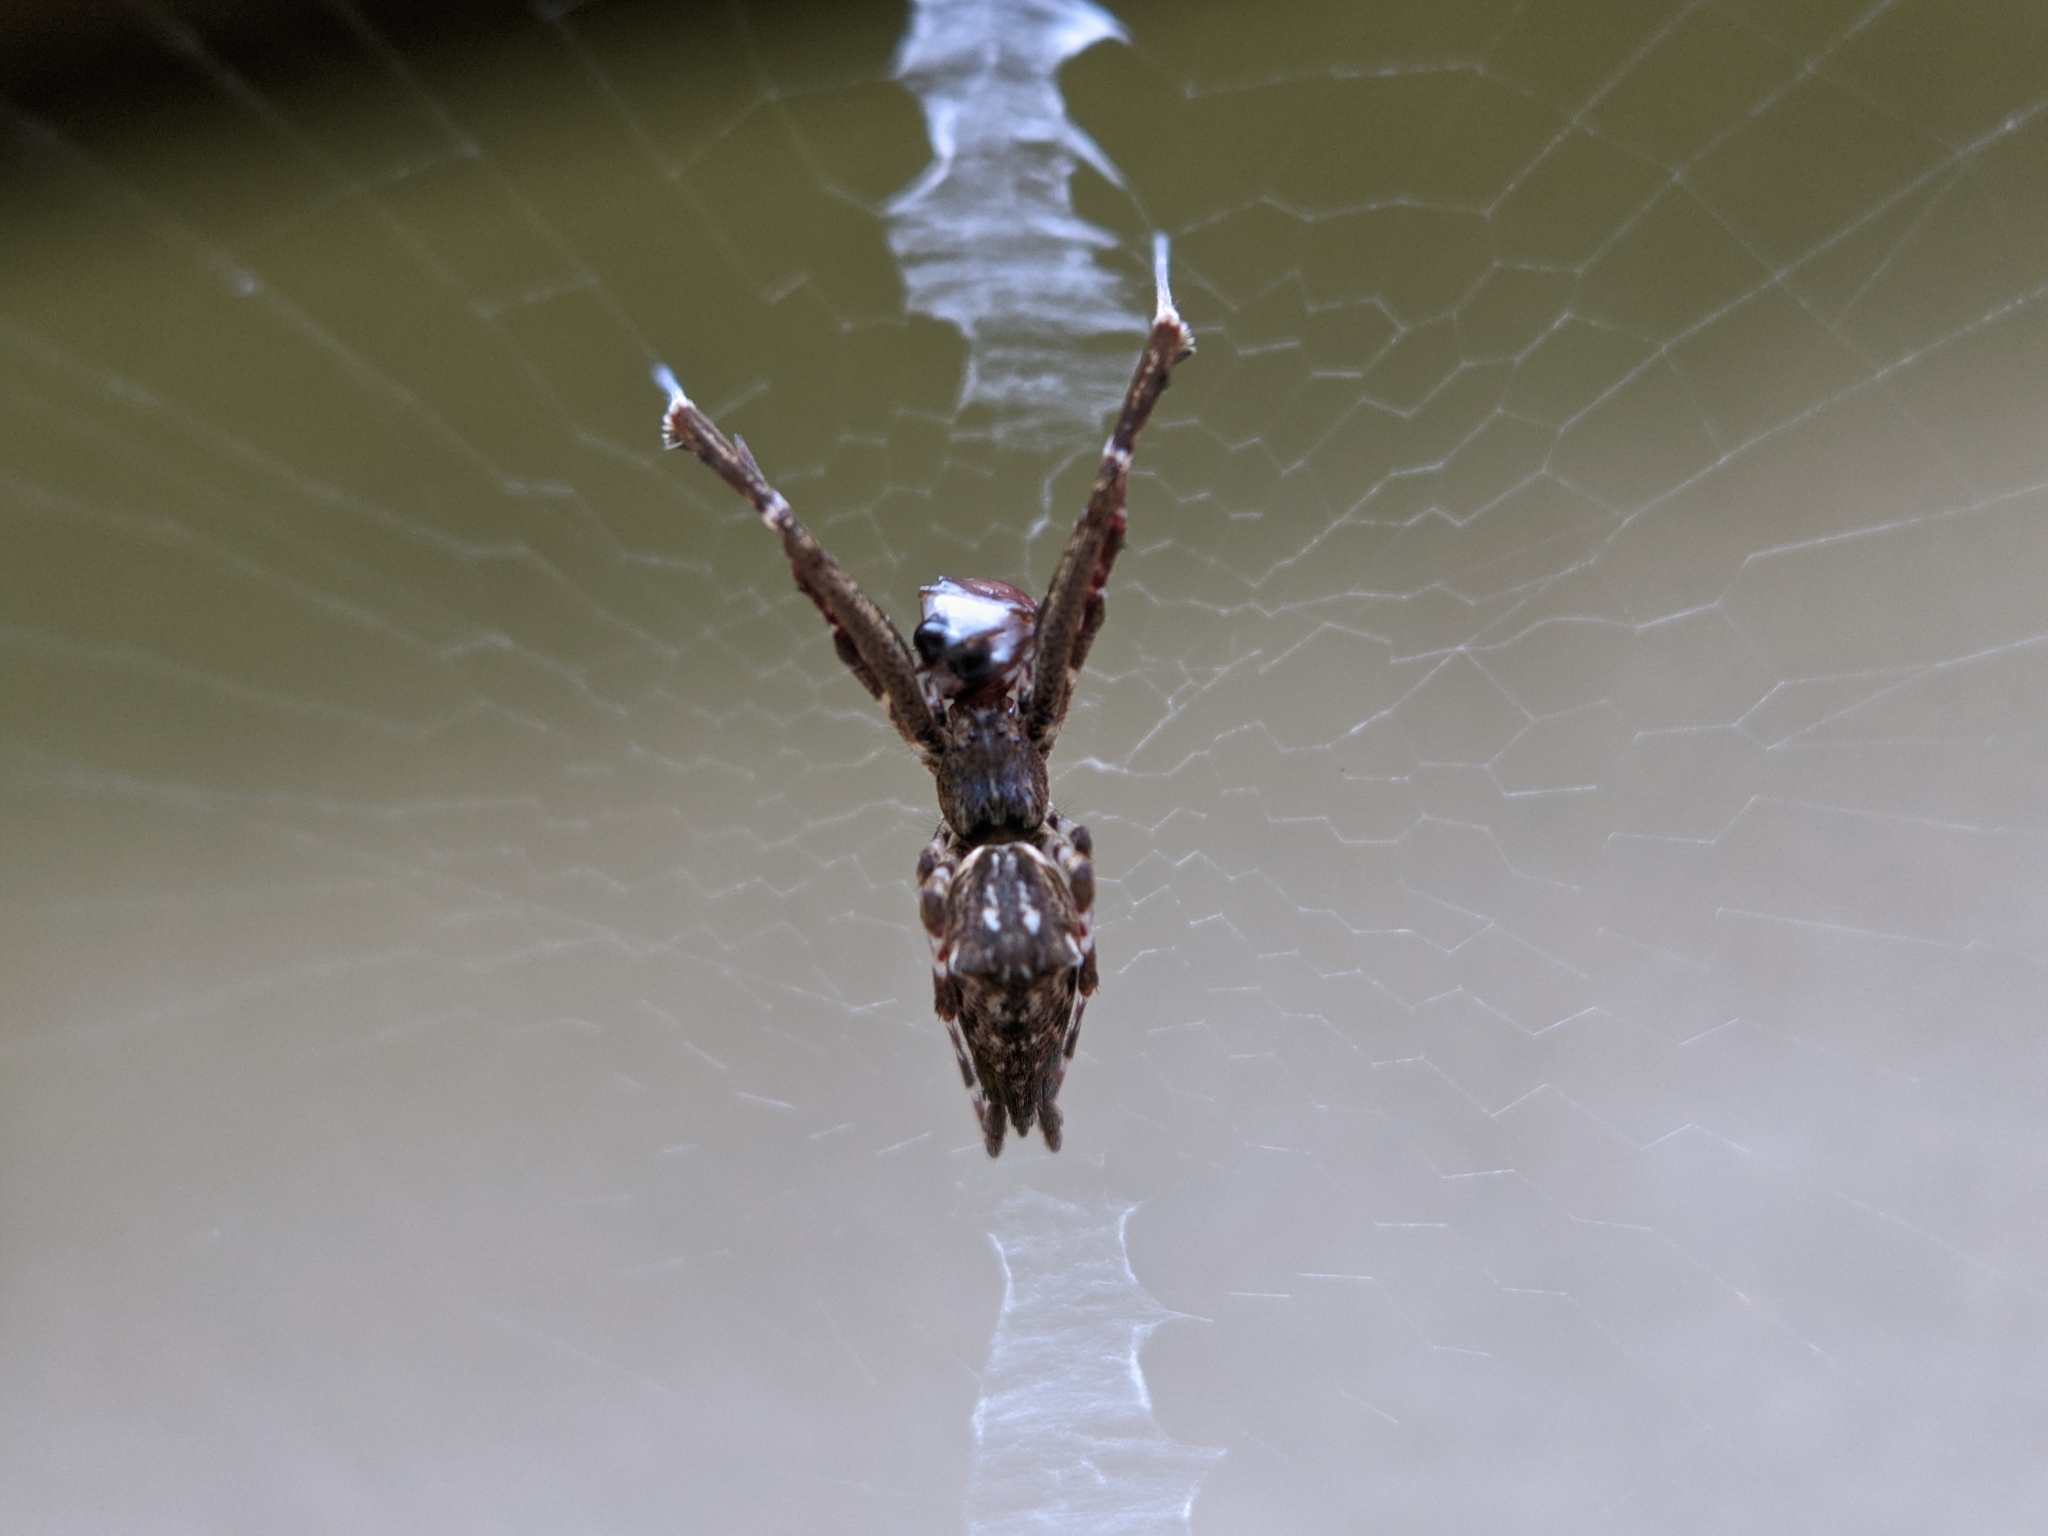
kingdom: Animalia
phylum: Arthropoda
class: Arachnida
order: Araneae
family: Uloboridae
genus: Uloborus
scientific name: Uloborus glomosus
